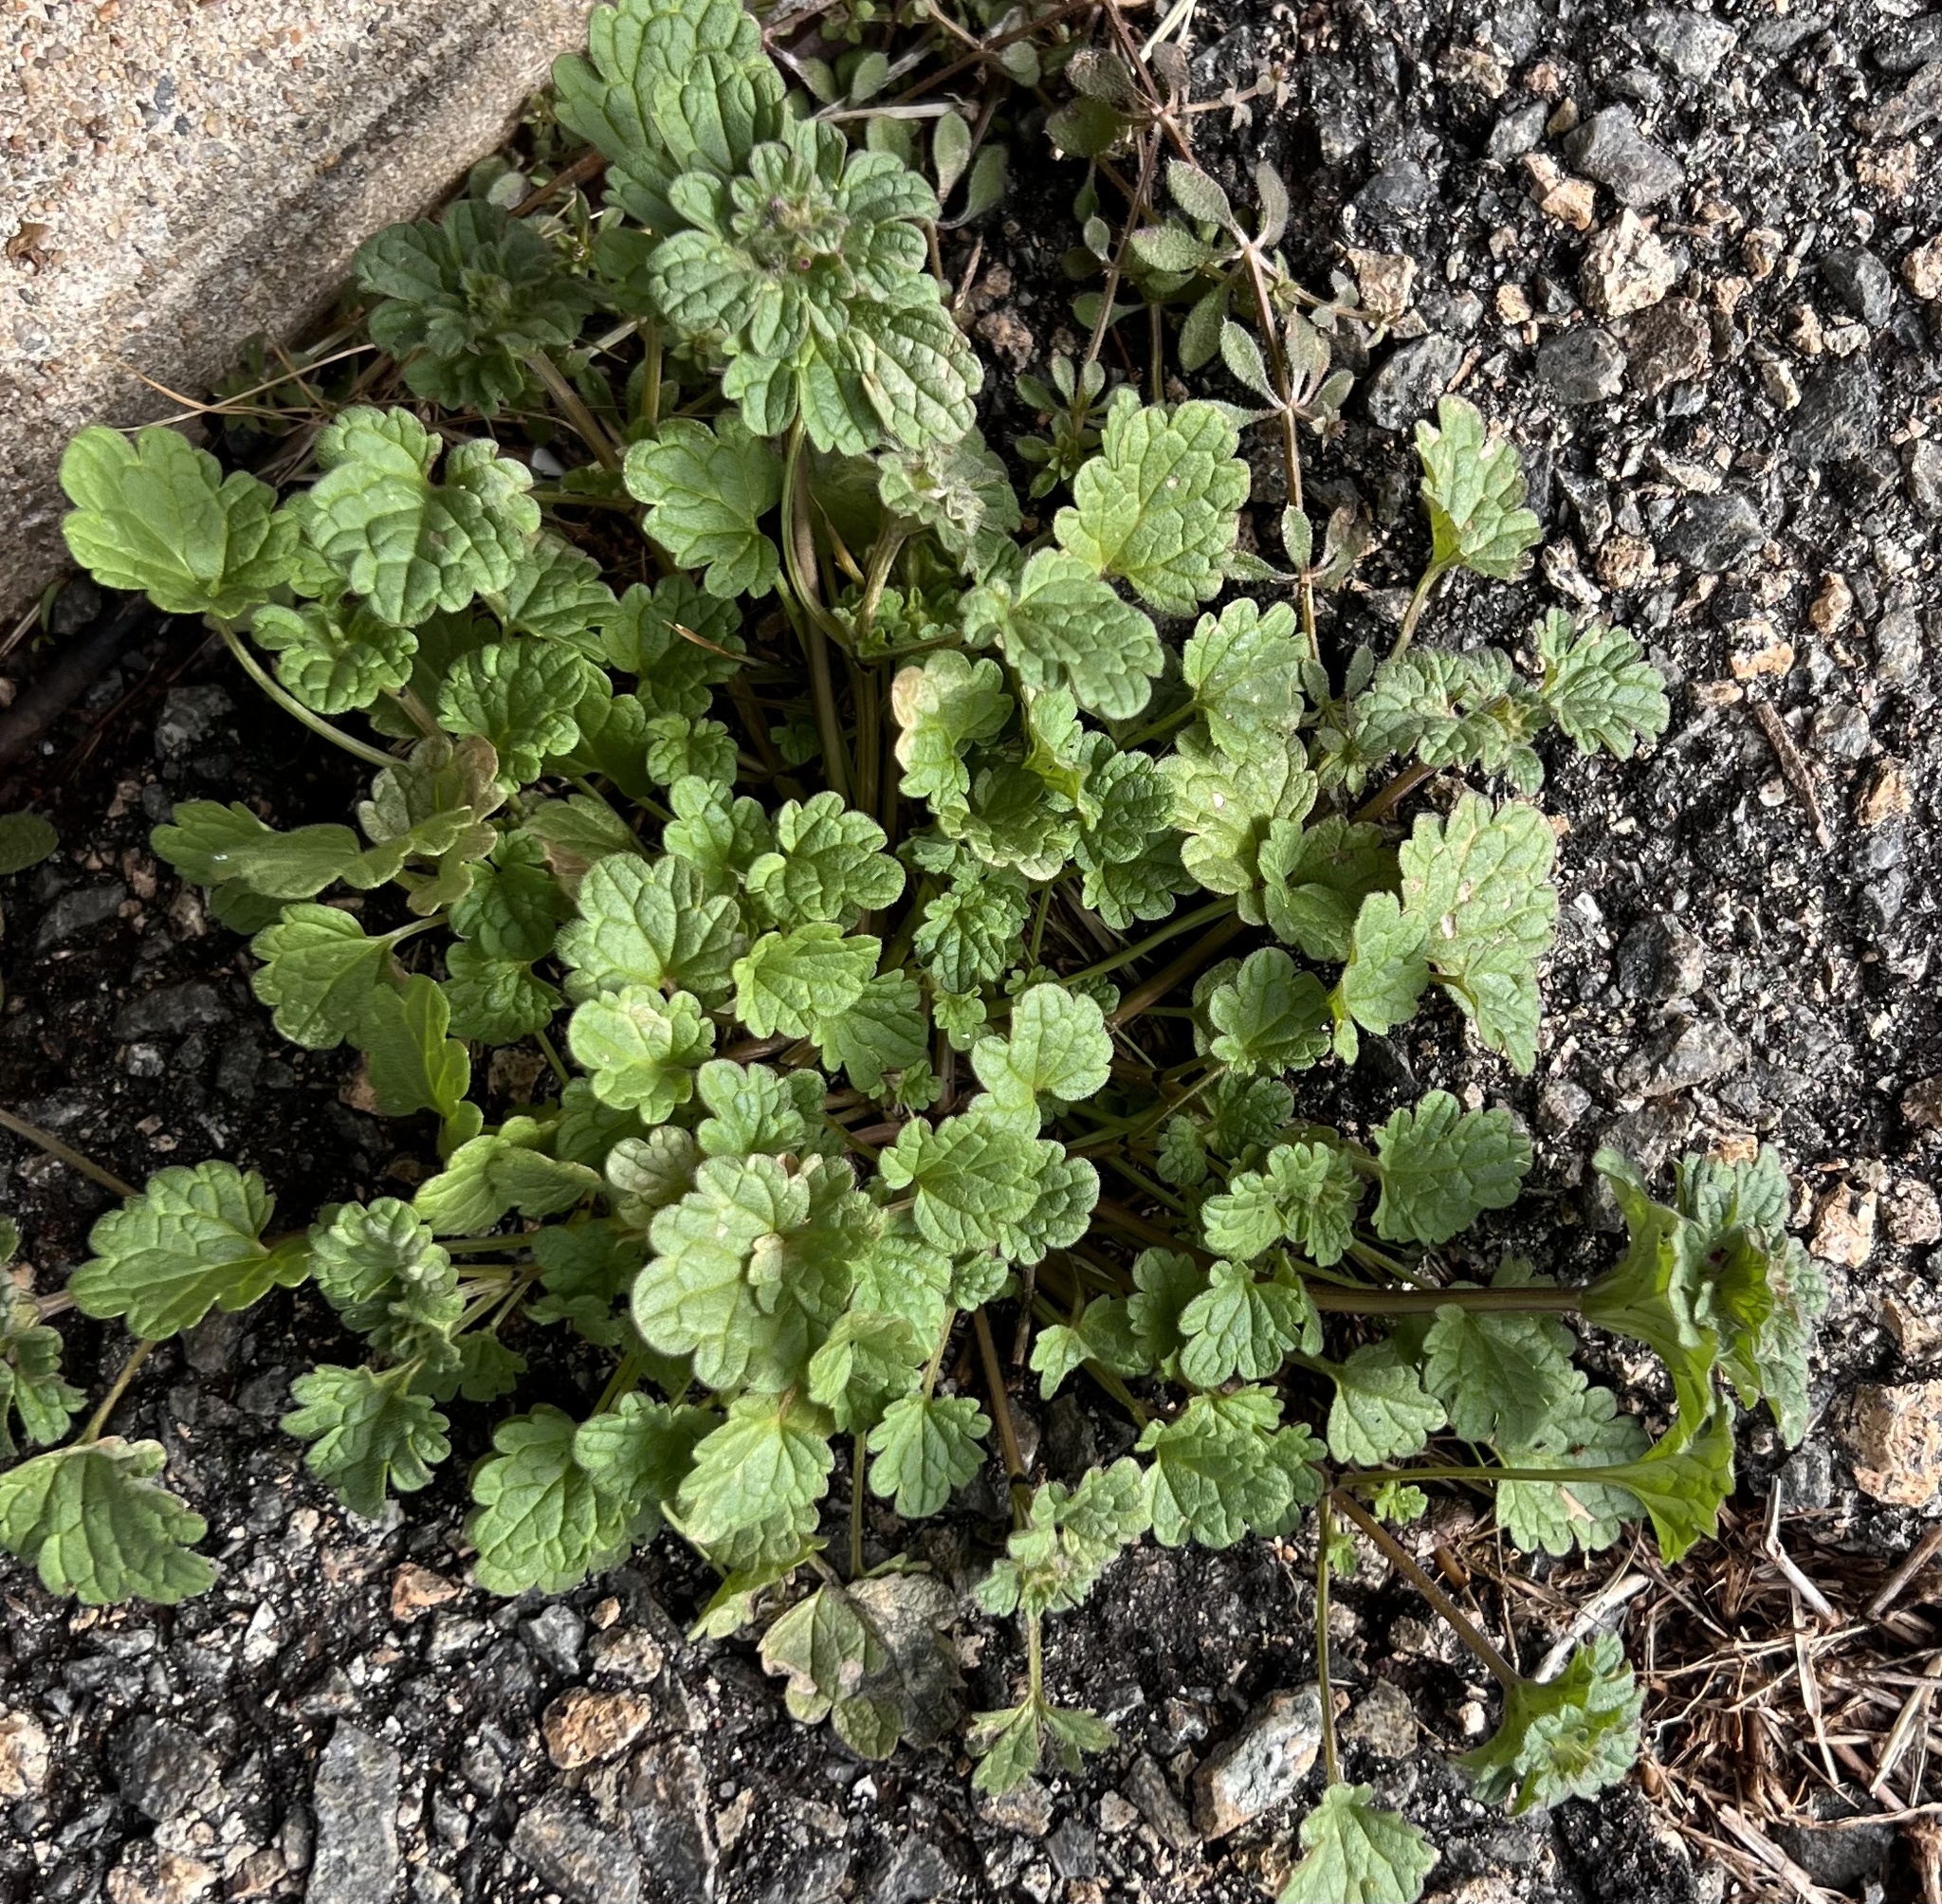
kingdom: Plantae
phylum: Tracheophyta
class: Magnoliopsida
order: Lamiales
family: Lamiaceae
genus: Lamium
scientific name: Lamium amplexicaule
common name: Henbit dead-nettle
